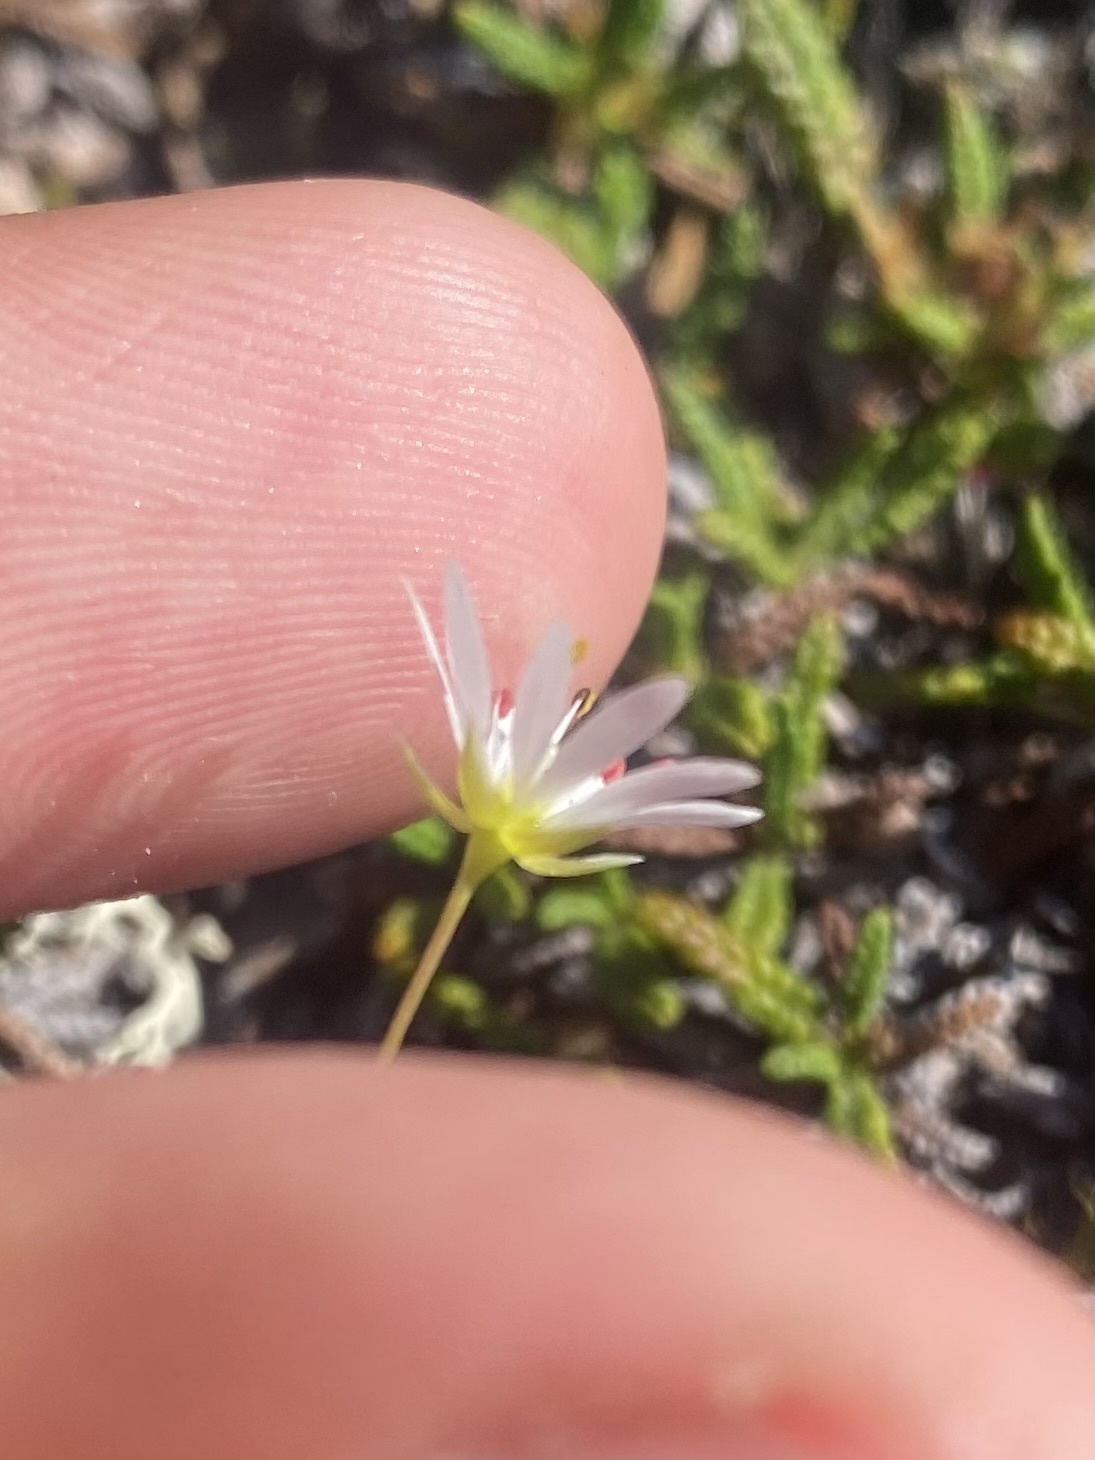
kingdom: Plantae
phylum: Tracheophyta
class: Magnoliopsida
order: Caryophyllales
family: Caryophyllaceae
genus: Stellaria
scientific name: Stellaria edwardsii
